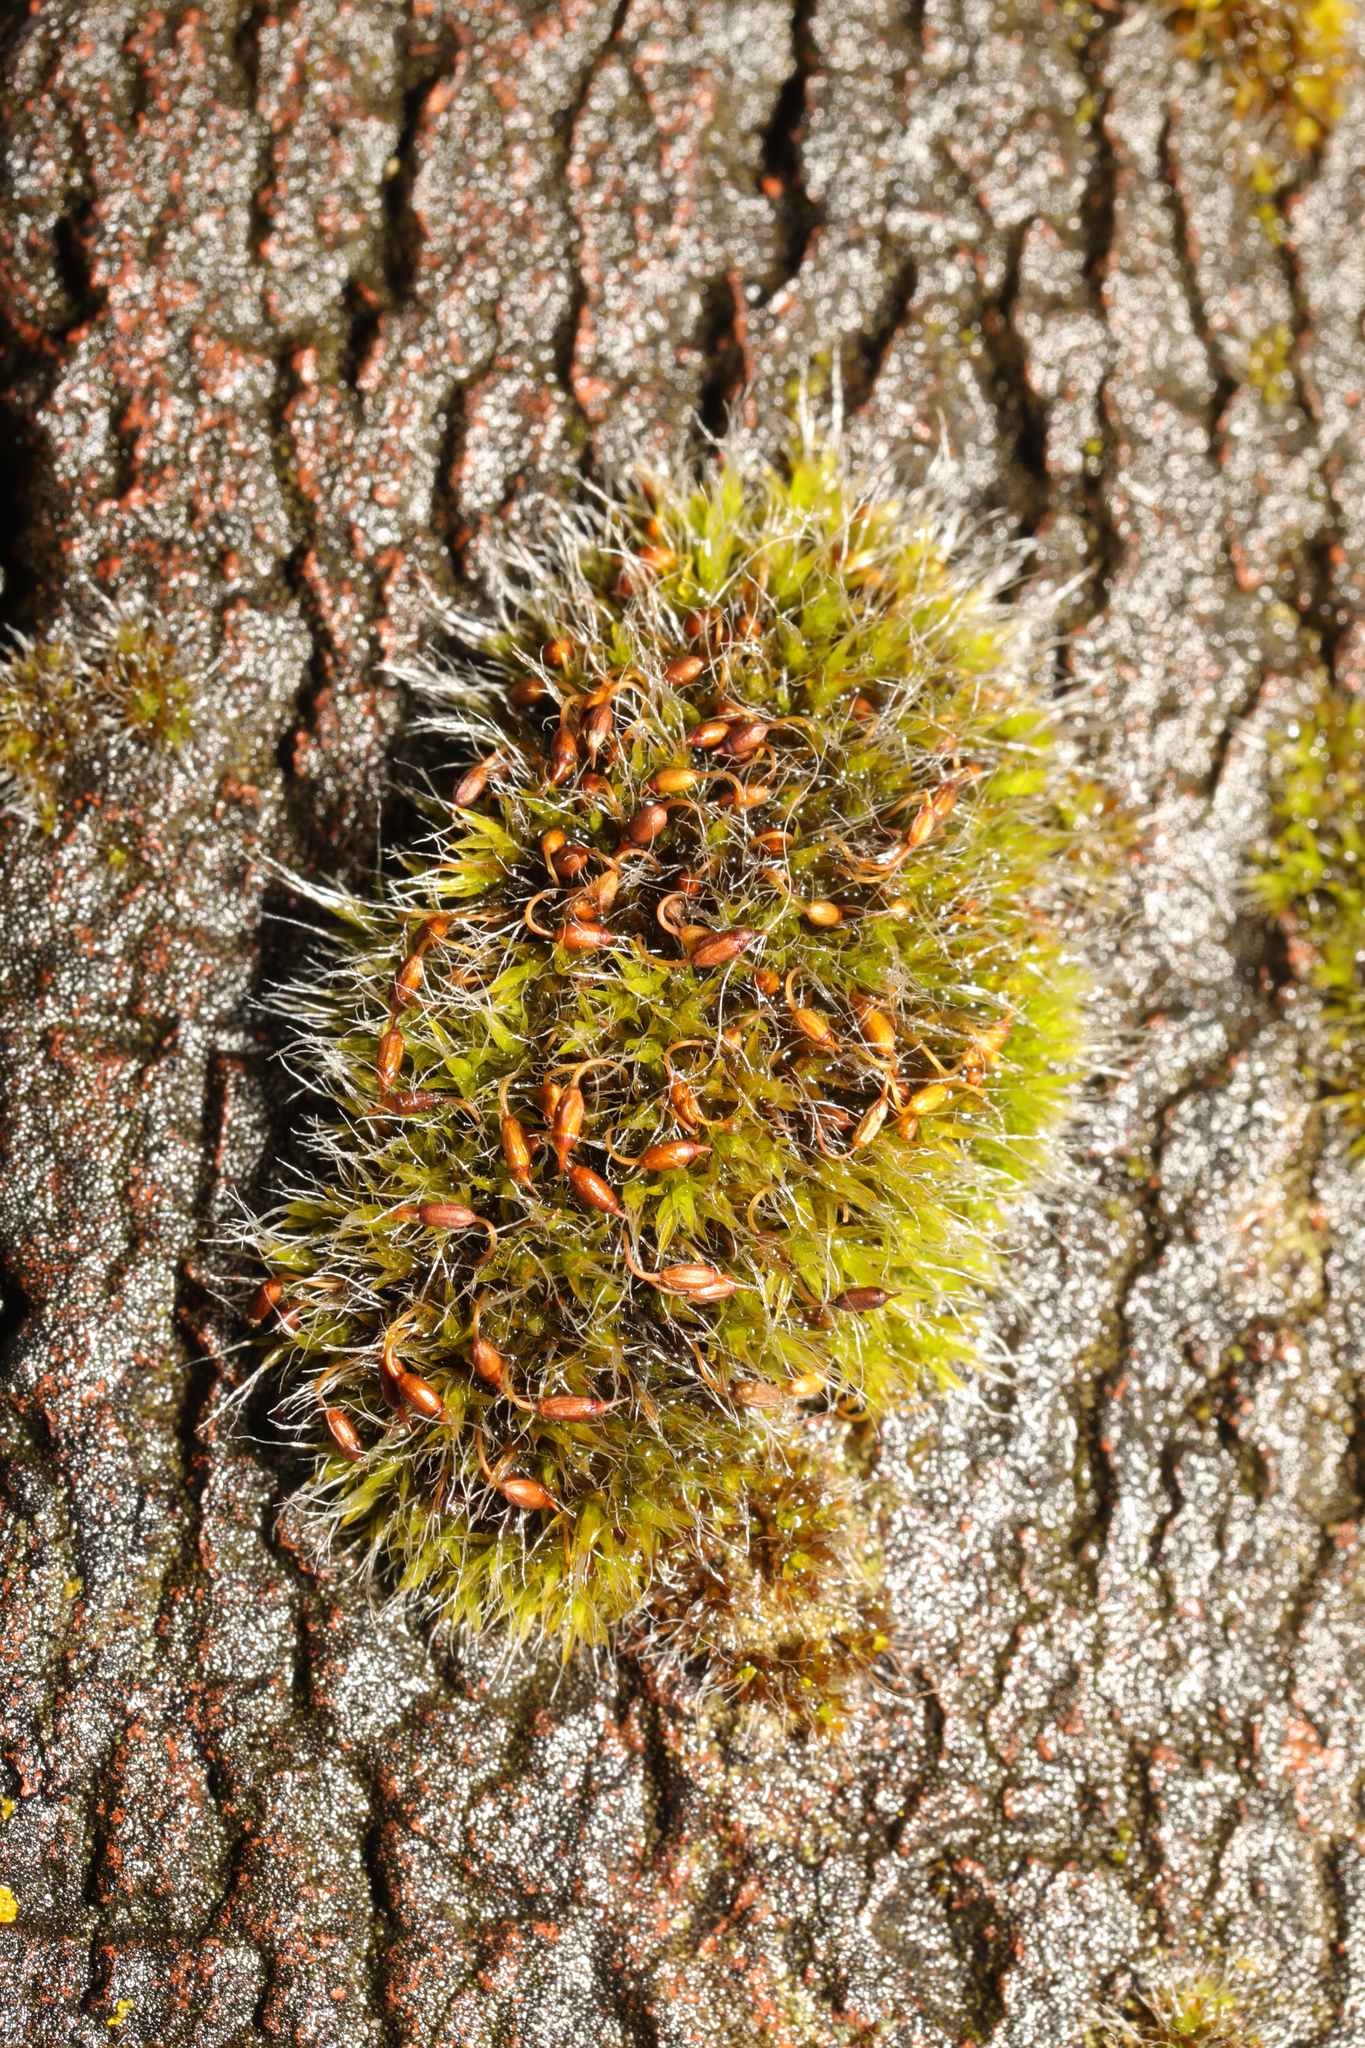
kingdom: Plantae
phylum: Bryophyta
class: Bryopsida
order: Grimmiales
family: Grimmiaceae
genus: Grimmia
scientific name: Grimmia pulvinata
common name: Grey-cushioned grimmia
